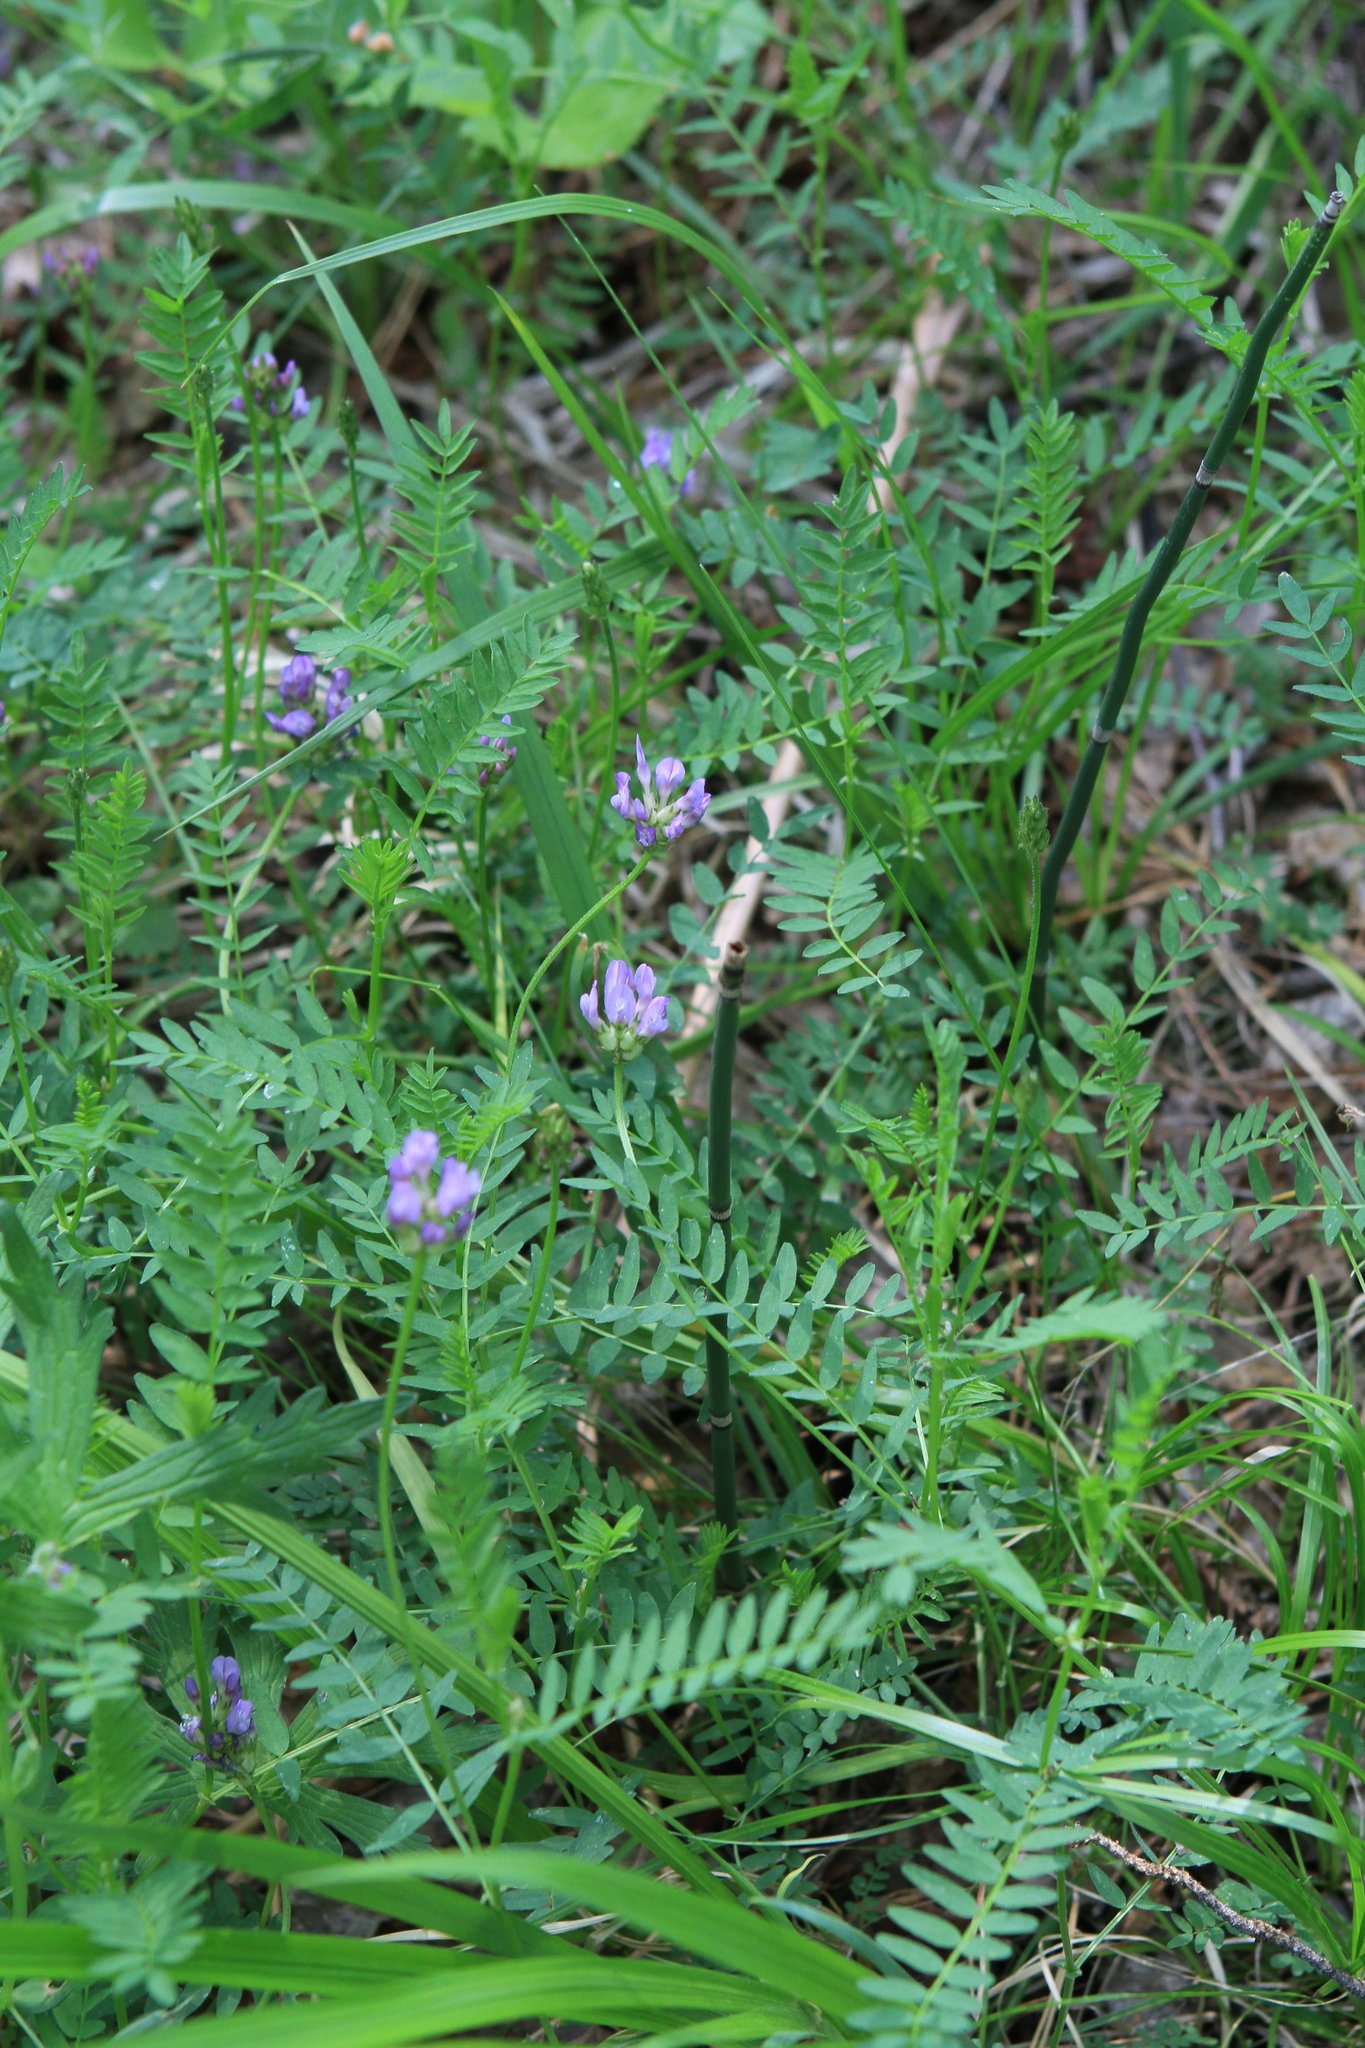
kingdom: Plantae
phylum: Tracheophyta
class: Magnoliopsida
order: Fabales
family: Fabaceae
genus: Astragalus
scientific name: Astragalus danicus
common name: Purple milk-vetch
